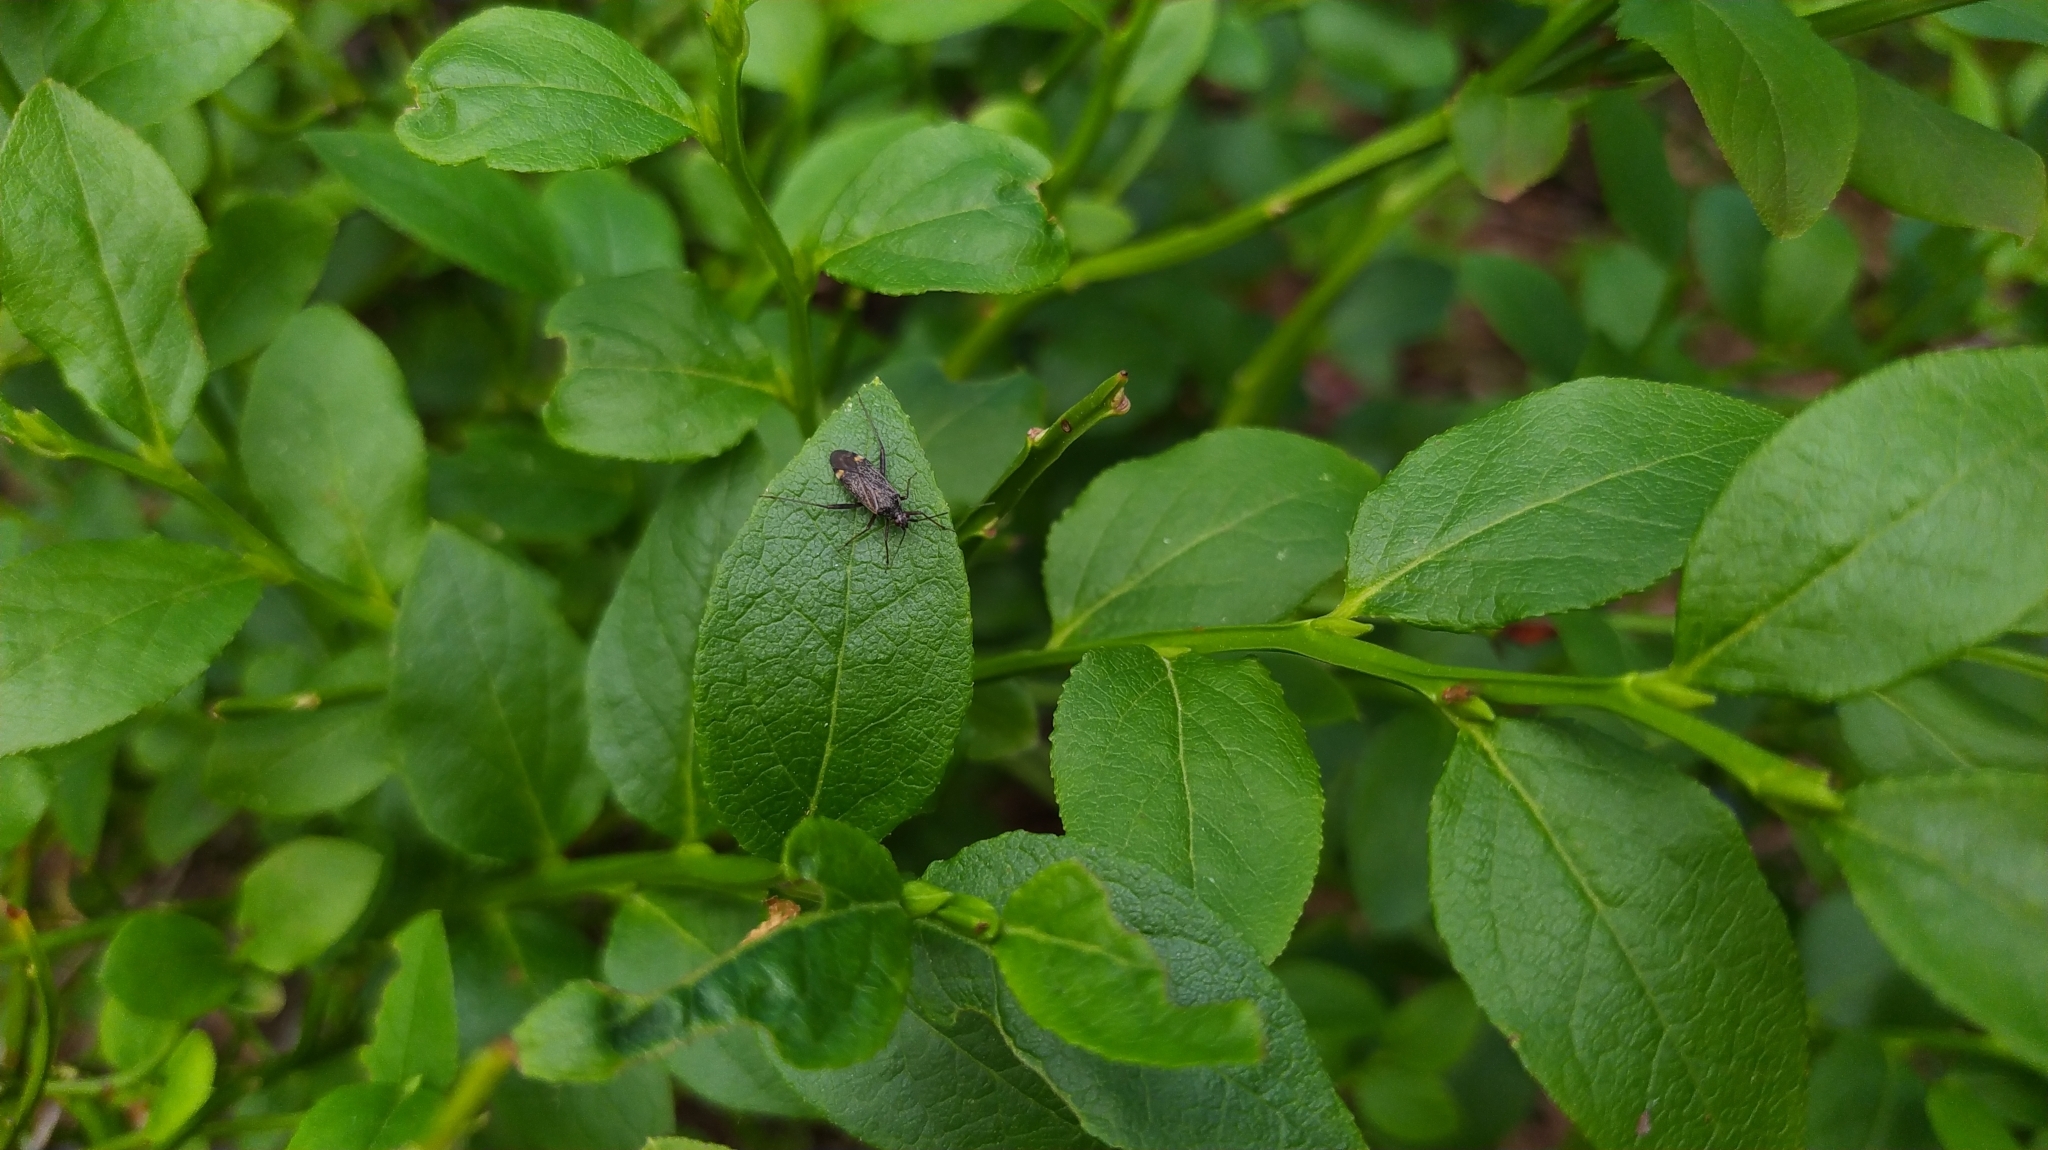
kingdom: Animalia
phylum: Arthropoda
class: Insecta
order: Hemiptera
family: Miridae
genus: Closterotomus
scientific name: Closterotomus fulvomaculatus
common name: Spotted plant bug
